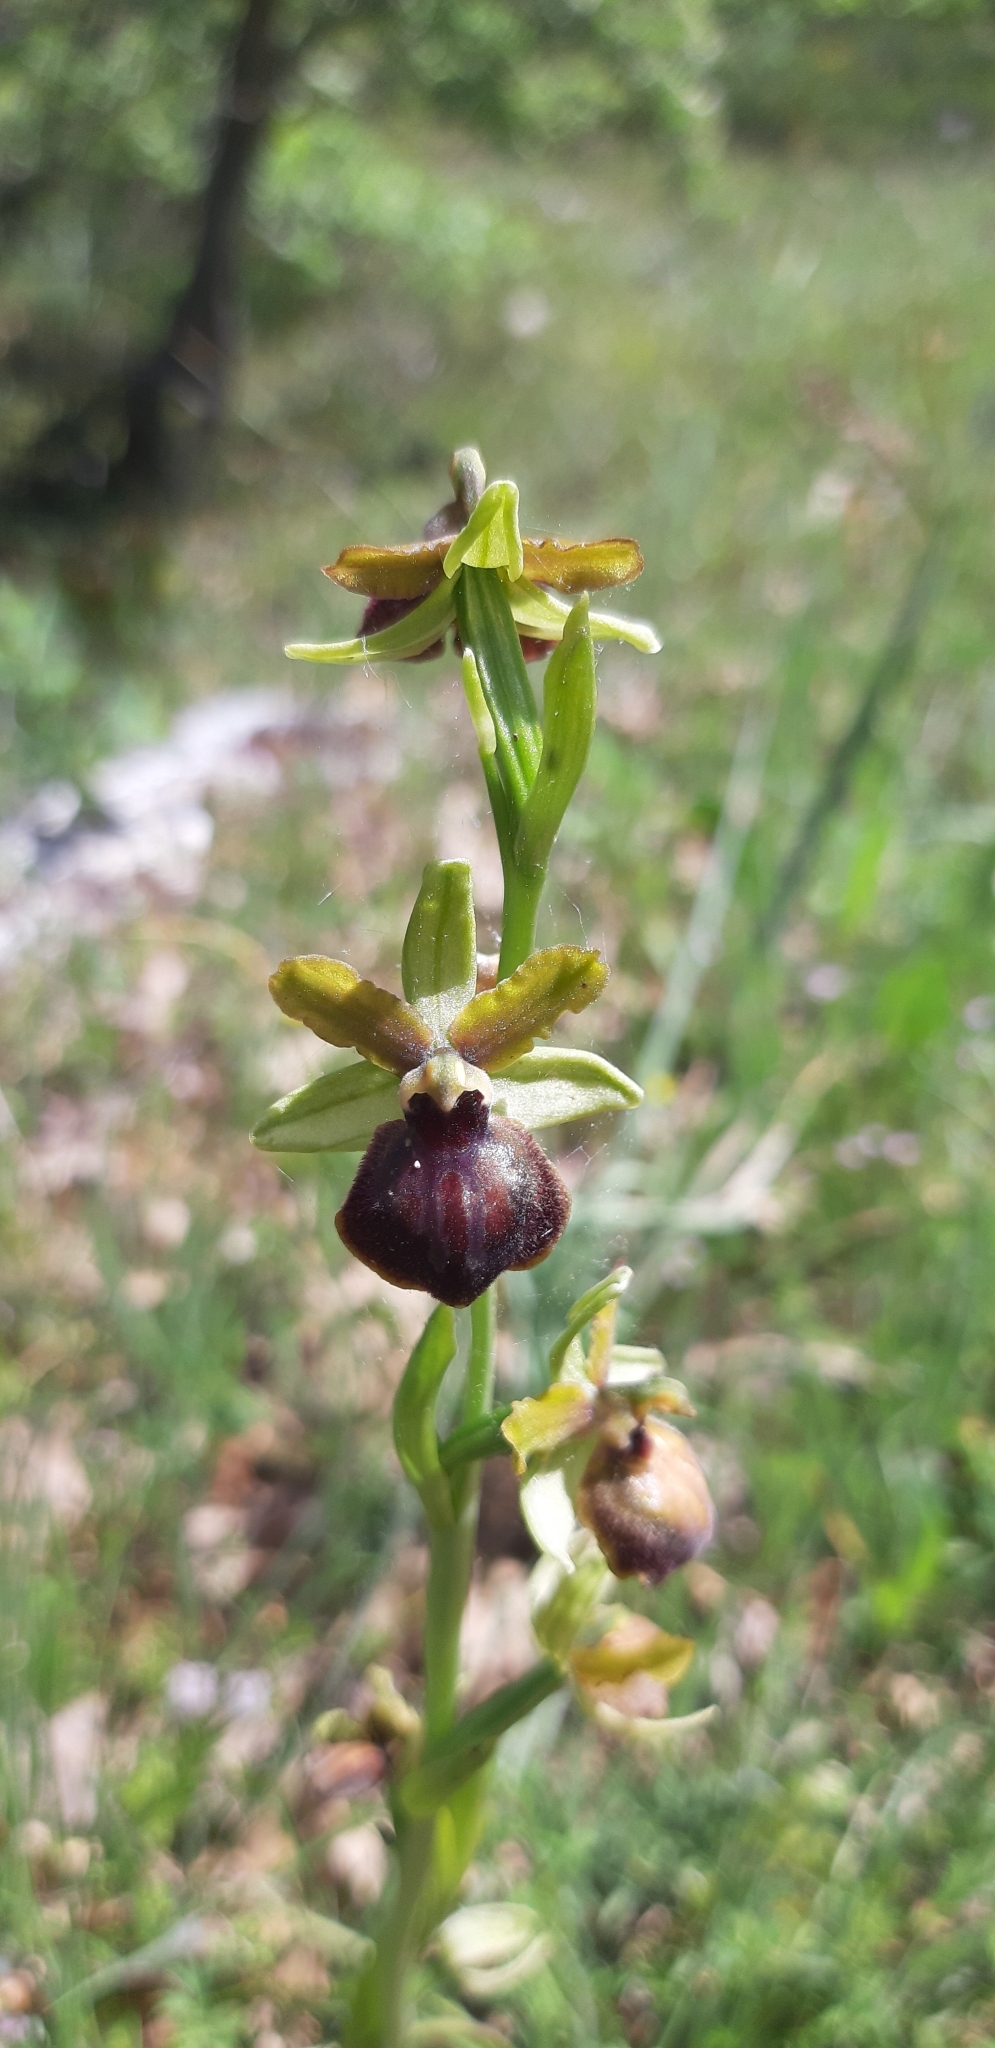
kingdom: Plantae
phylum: Tracheophyta
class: Liliopsida
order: Asparagales
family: Orchidaceae
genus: Ophrys
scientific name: Ophrys sphegodes
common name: Early spider-orchid
